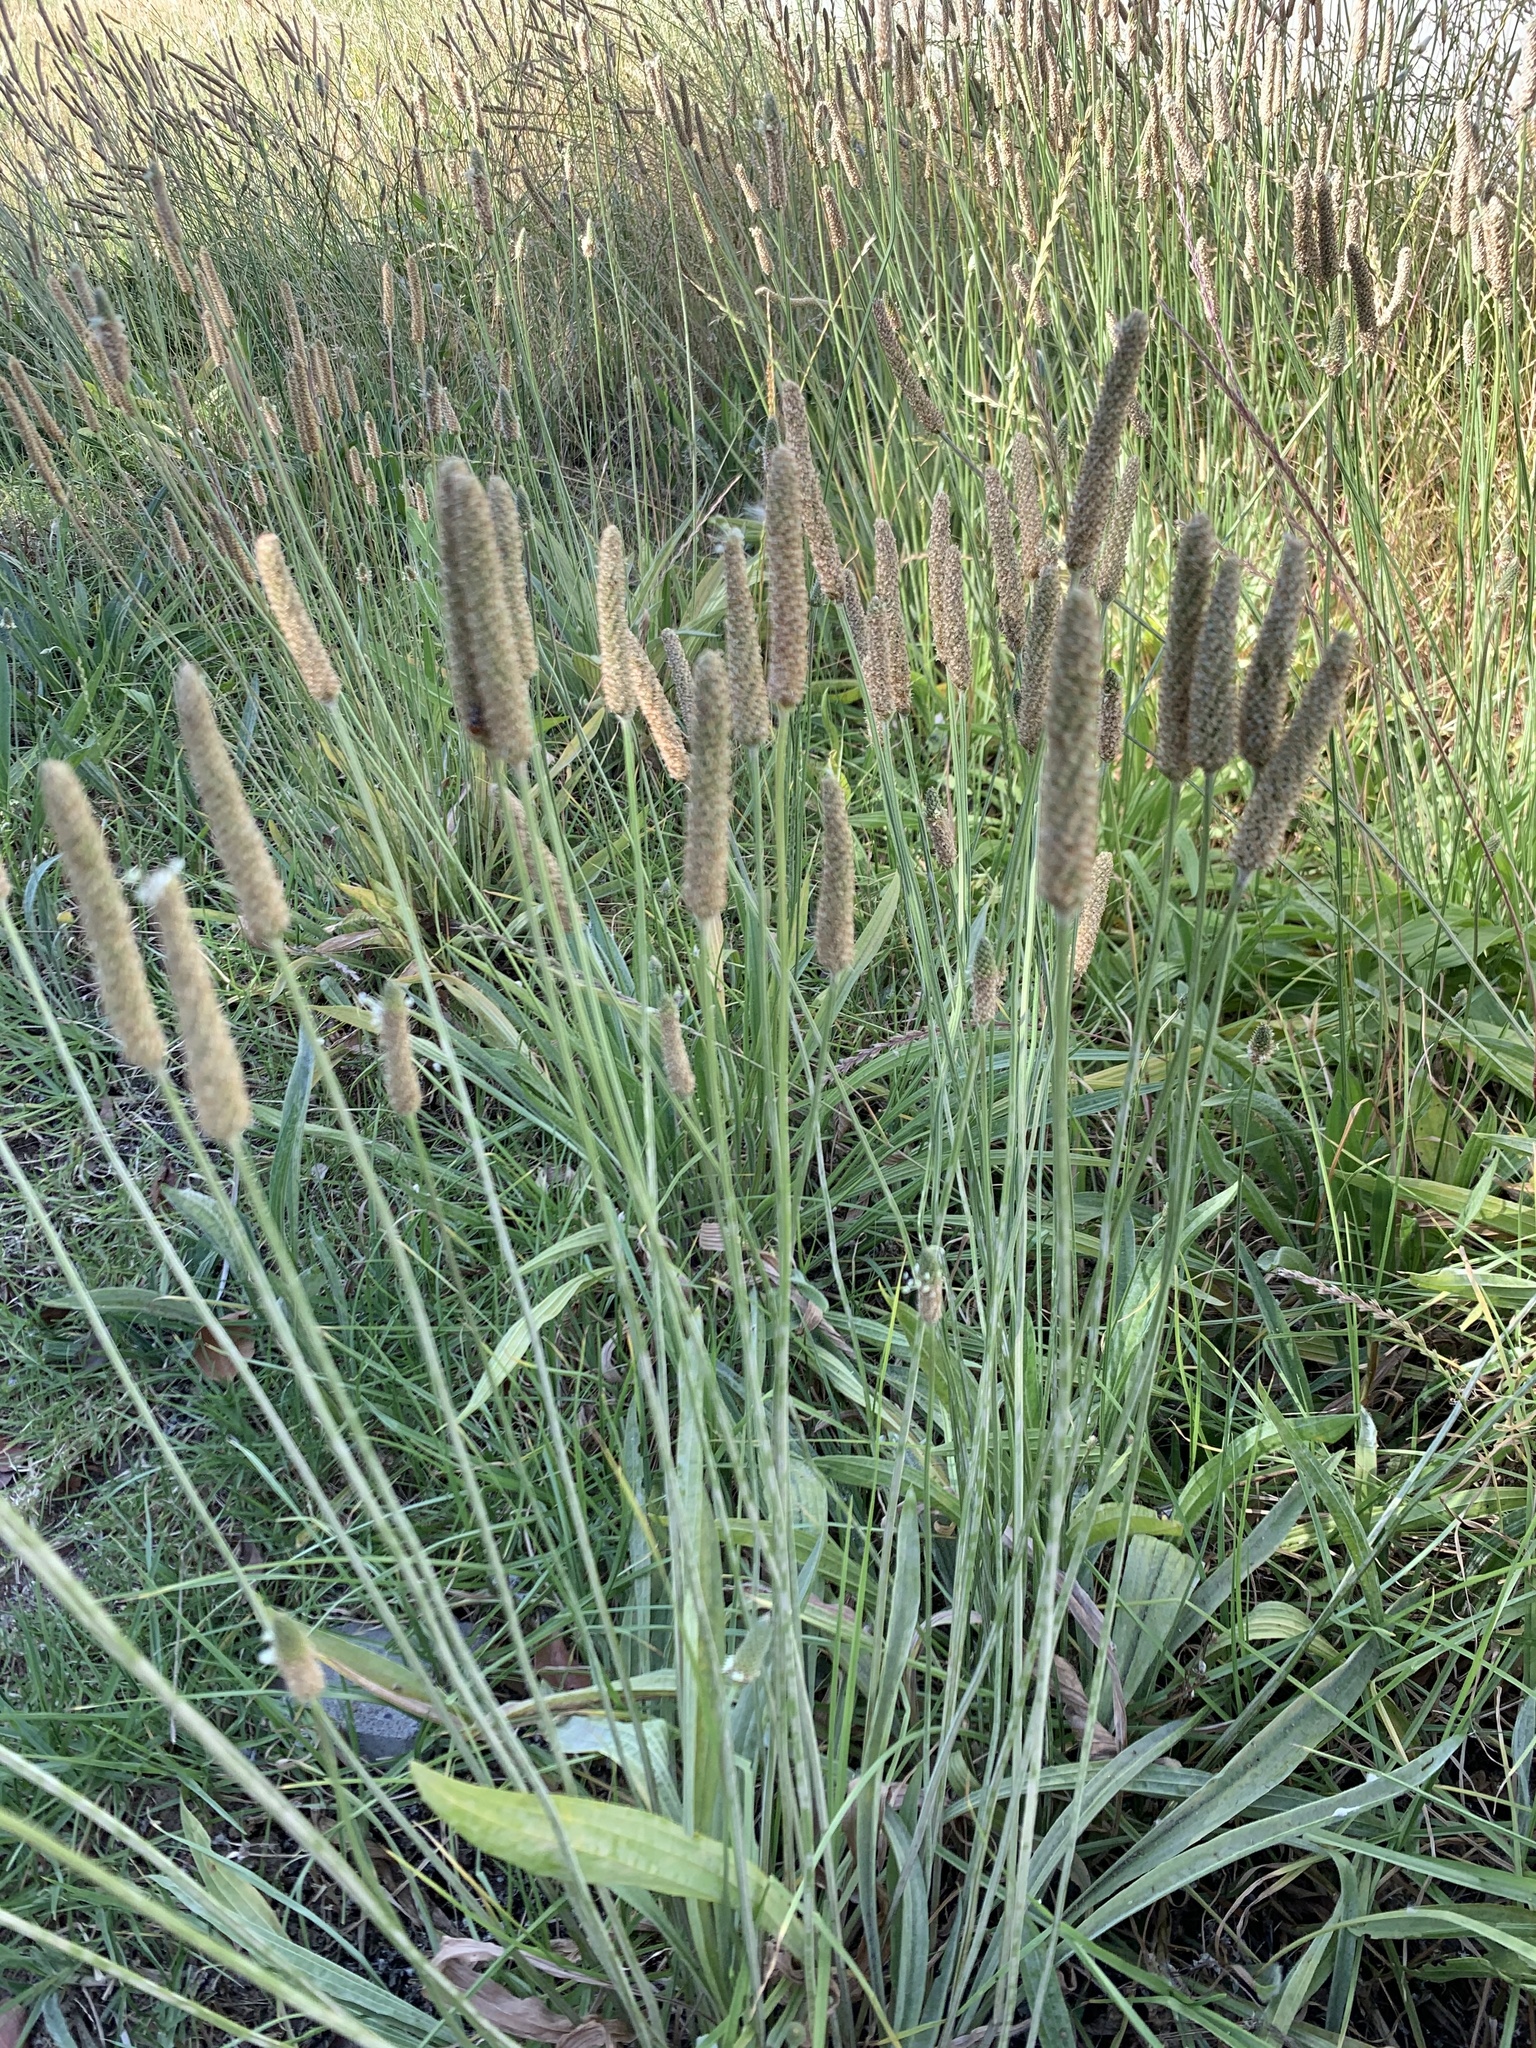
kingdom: Plantae
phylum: Tracheophyta
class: Magnoliopsida
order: Lamiales
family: Plantaginaceae
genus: Plantago
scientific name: Plantago lanceolata
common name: Ribwort plantain
